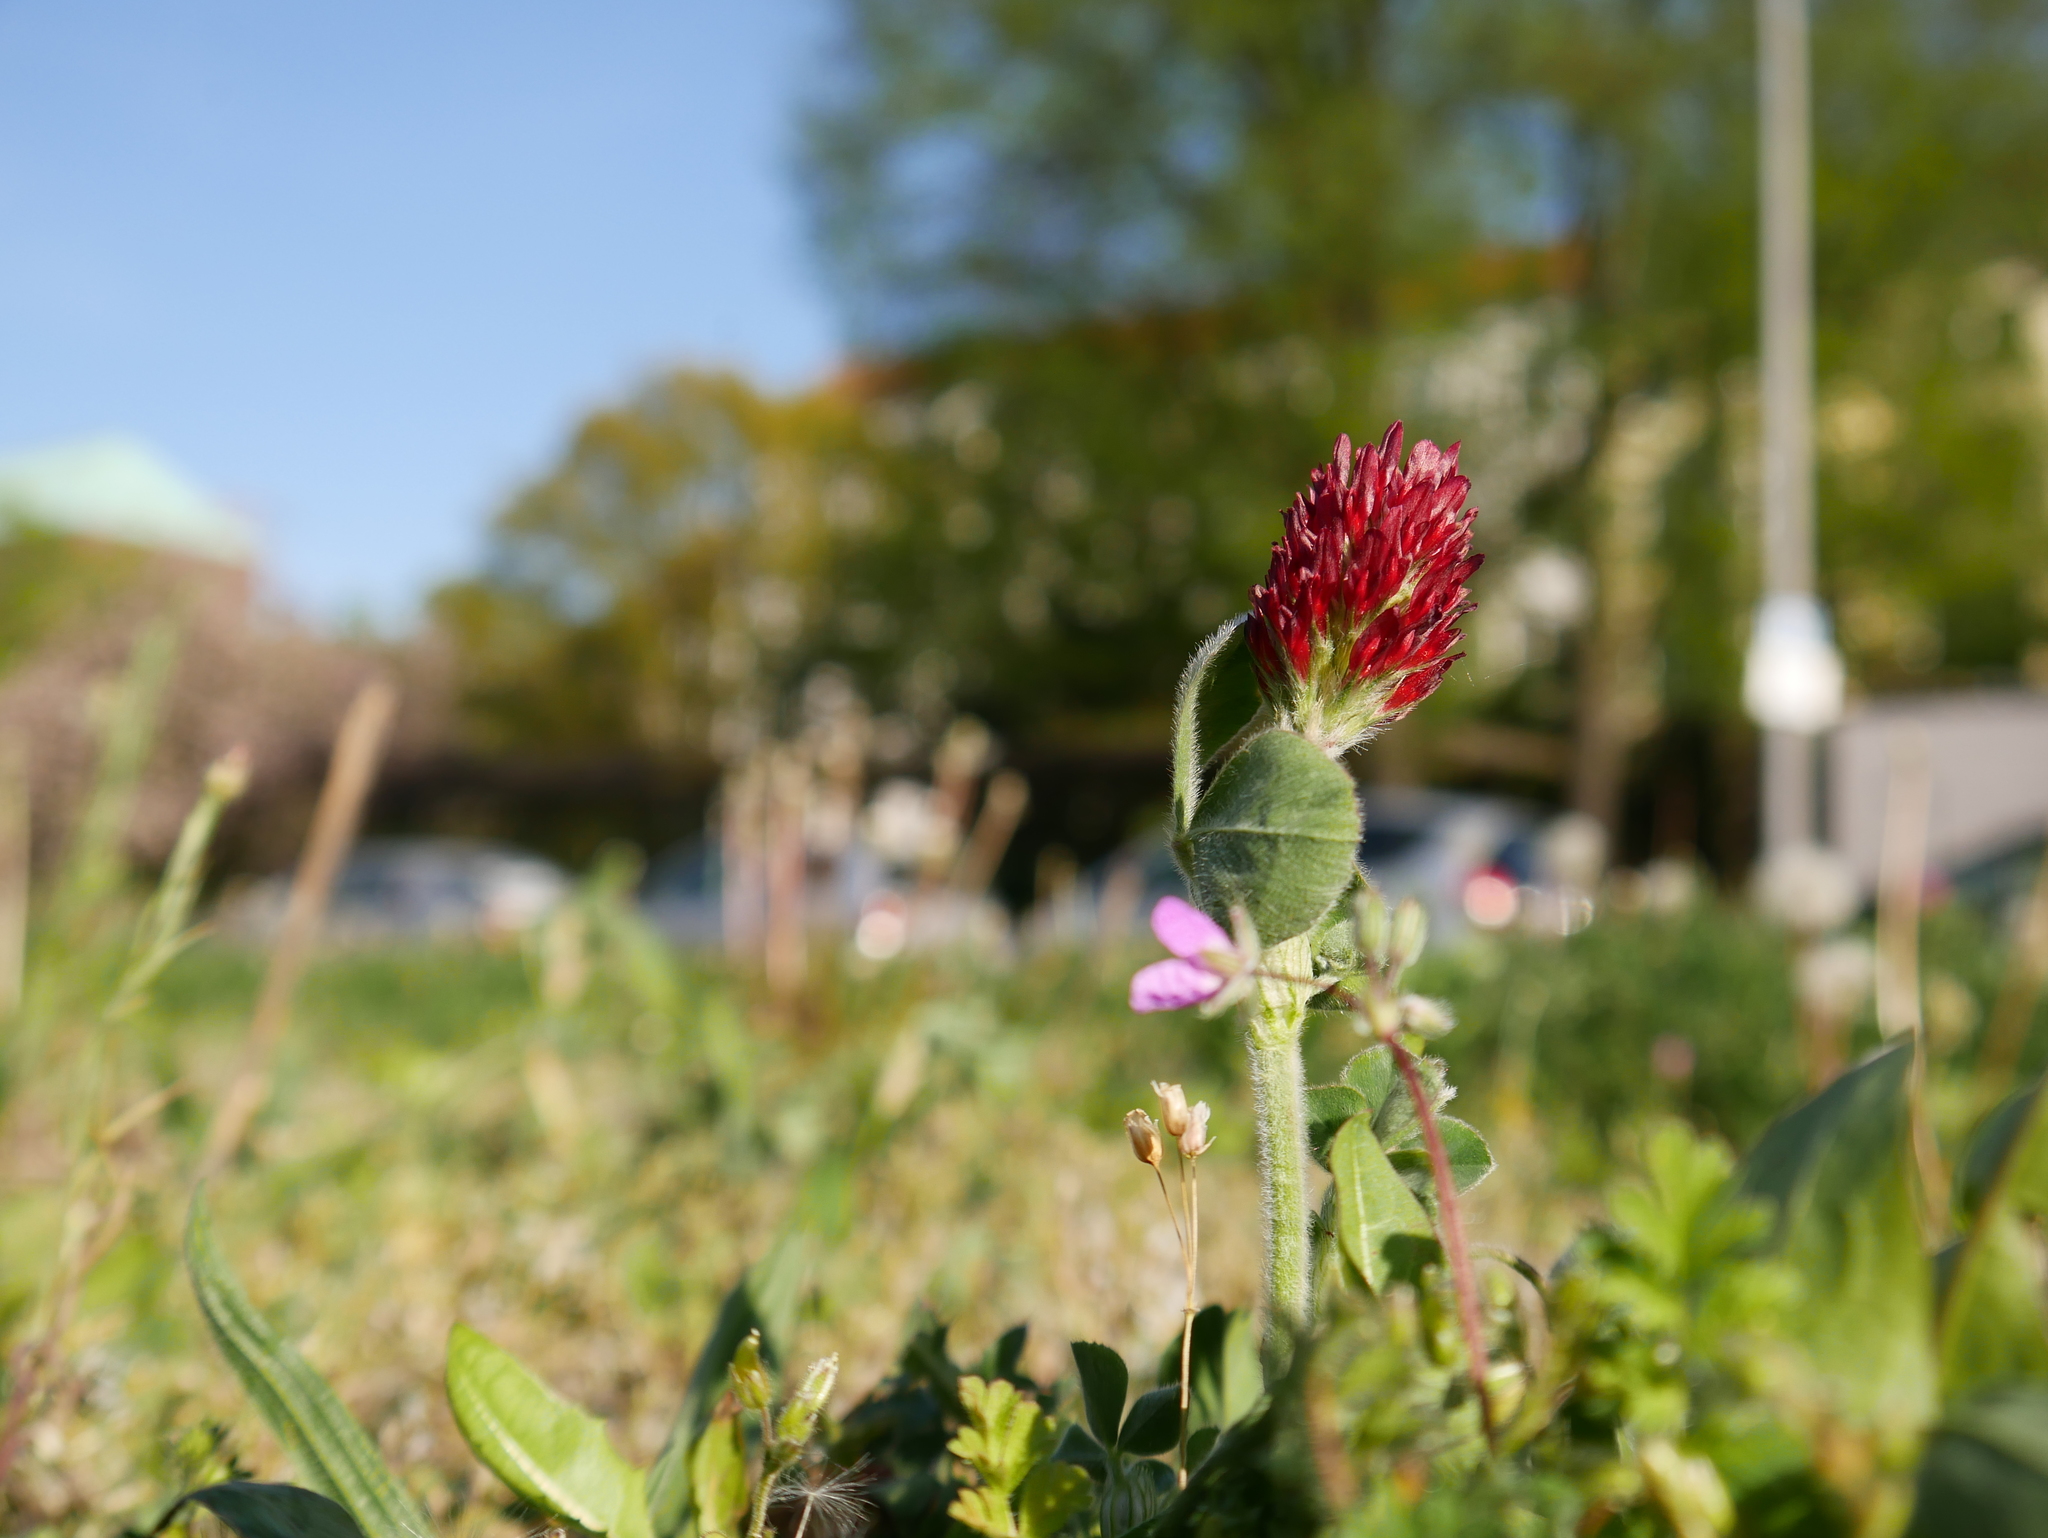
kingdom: Plantae
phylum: Tracheophyta
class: Magnoliopsida
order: Fabales
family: Fabaceae
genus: Trifolium
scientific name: Trifolium incarnatum
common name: Crimson clover
